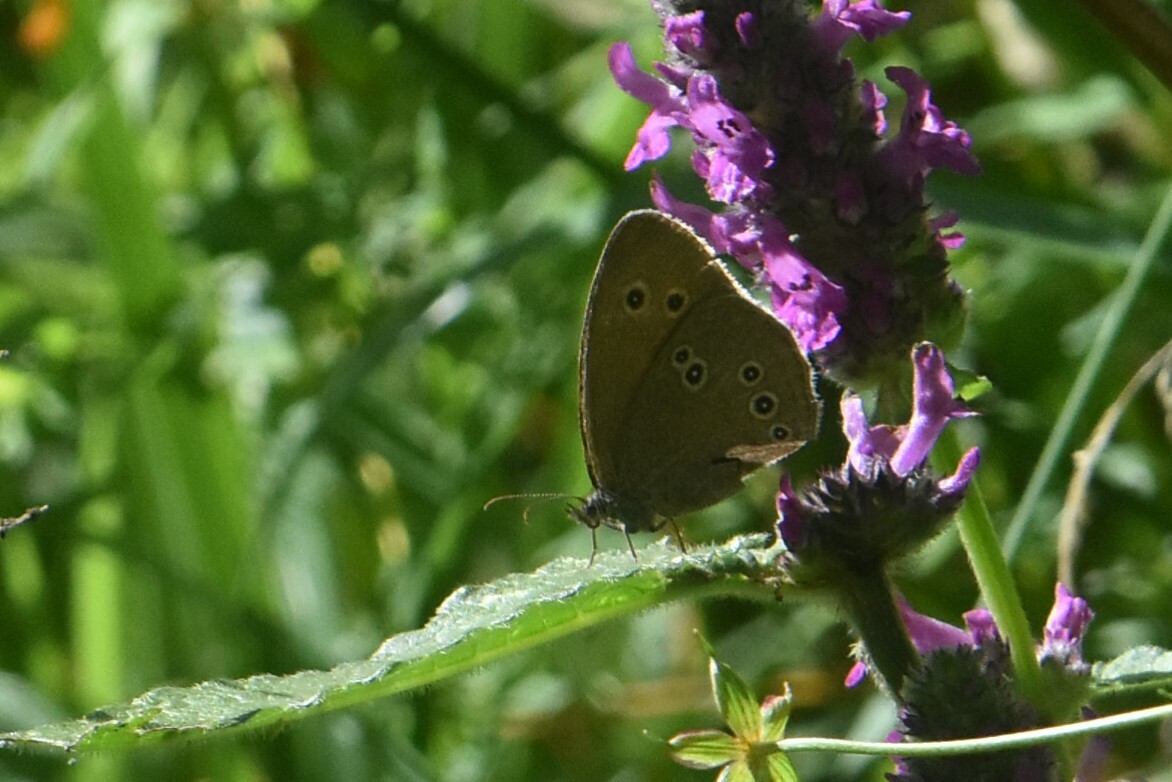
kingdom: Animalia
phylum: Arthropoda
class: Insecta
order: Lepidoptera
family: Nymphalidae
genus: Aphantopus
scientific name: Aphantopus hyperantus
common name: Ringlet
